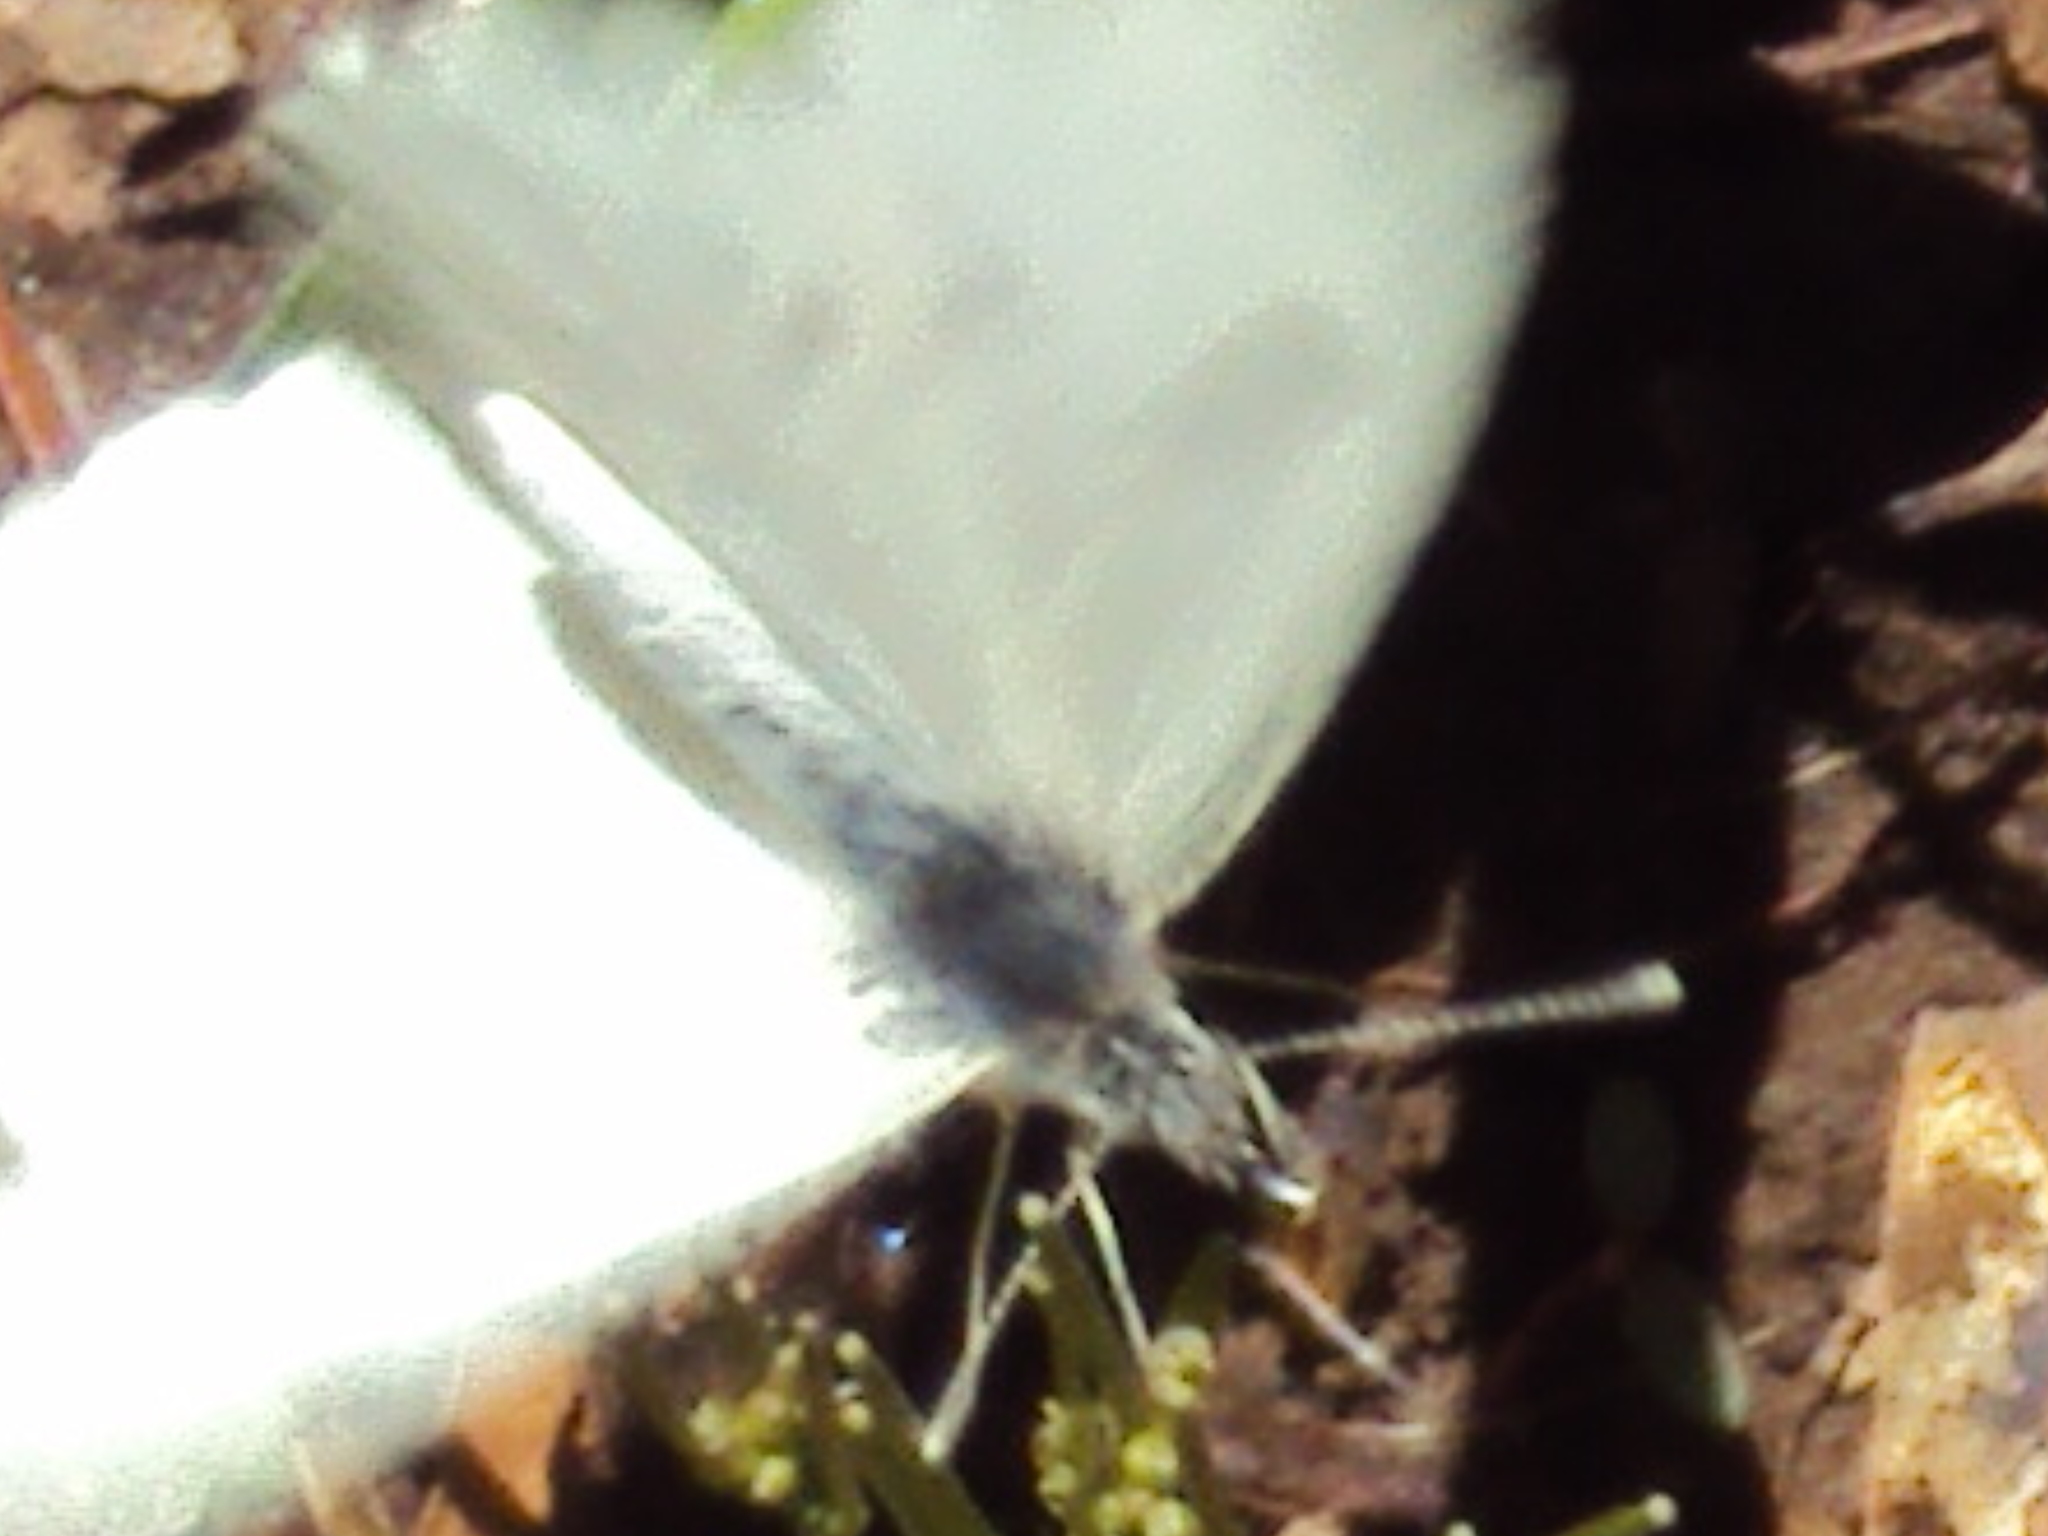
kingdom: Animalia
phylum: Arthropoda
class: Insecta
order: Lepidoptera
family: Pieridae
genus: Anthocharis
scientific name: Anthocharis midea
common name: Falcate orangetip
